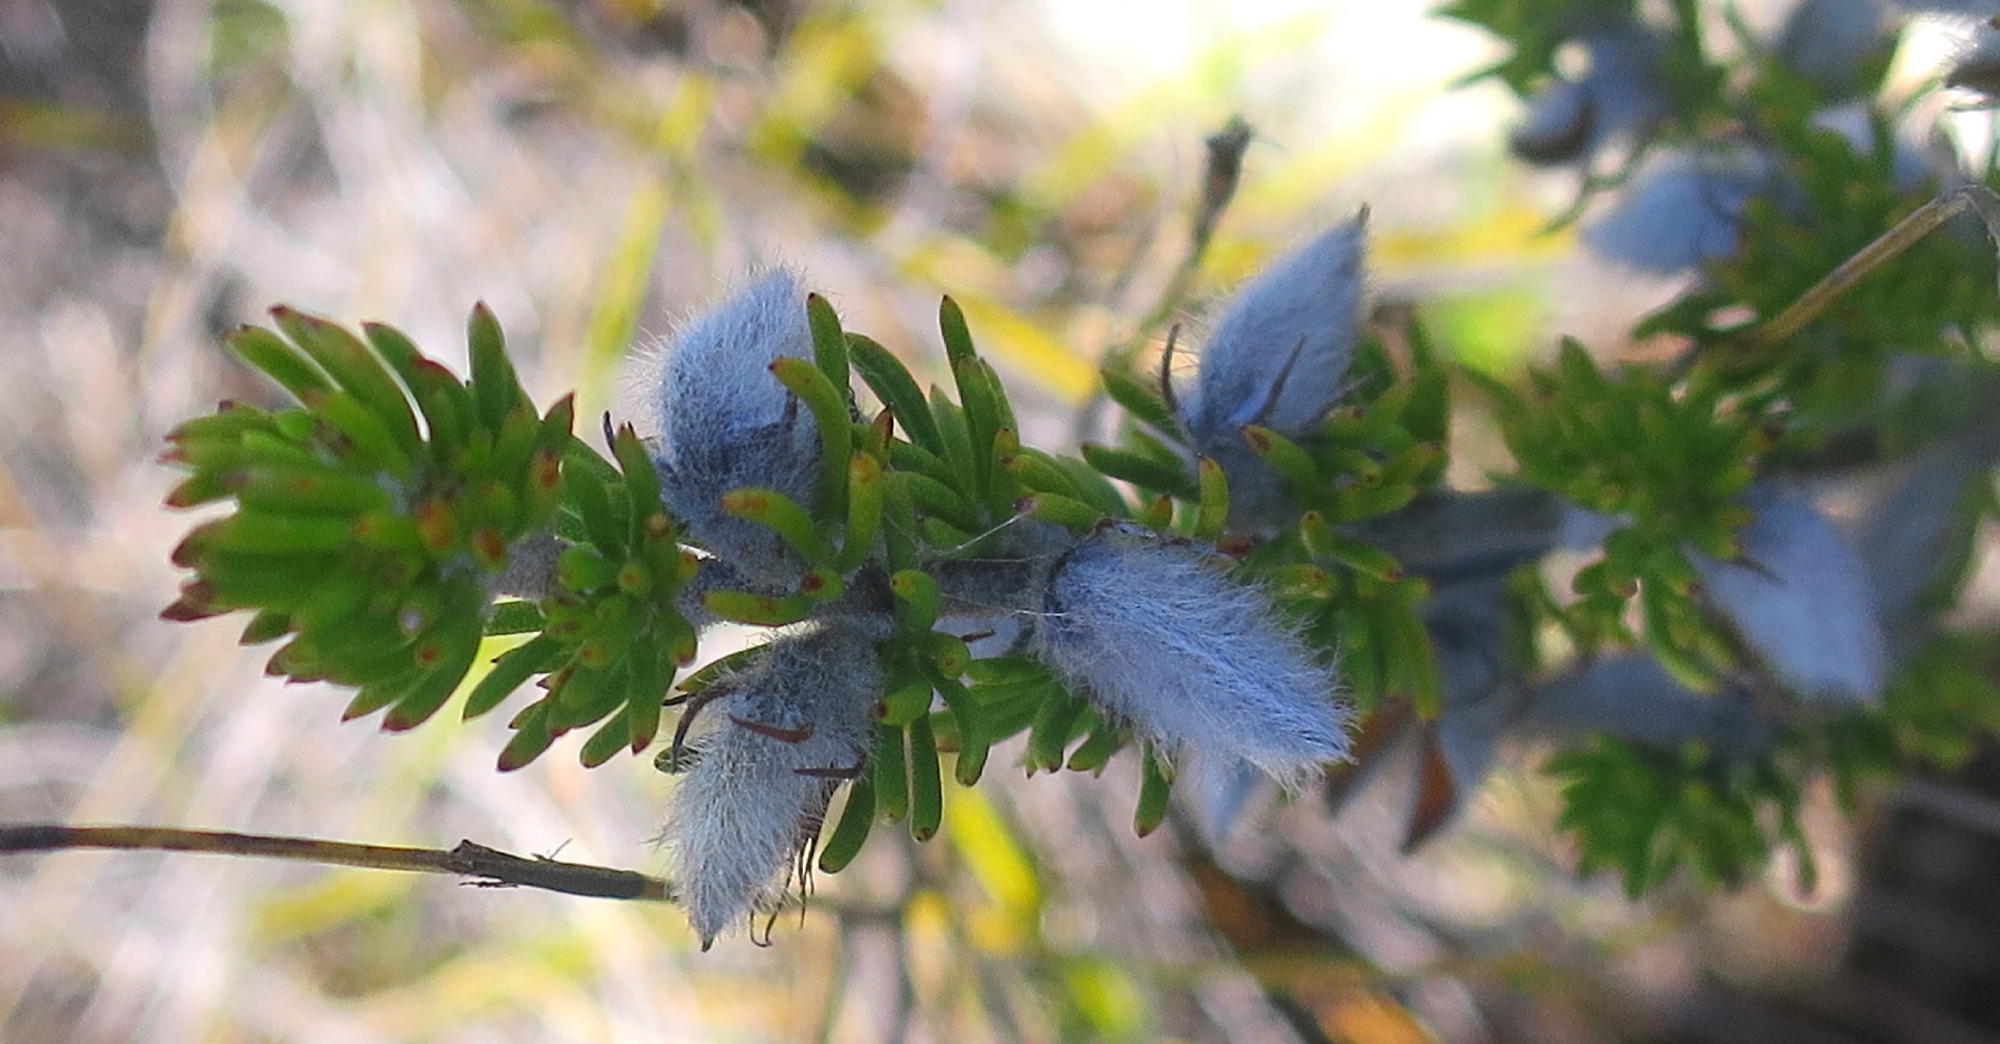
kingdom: Plantae
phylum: Tracheophyta
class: Magnoliopsida
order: Fabales
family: Fabaceae
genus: Aspalathus
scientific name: Aspalathus congesta
